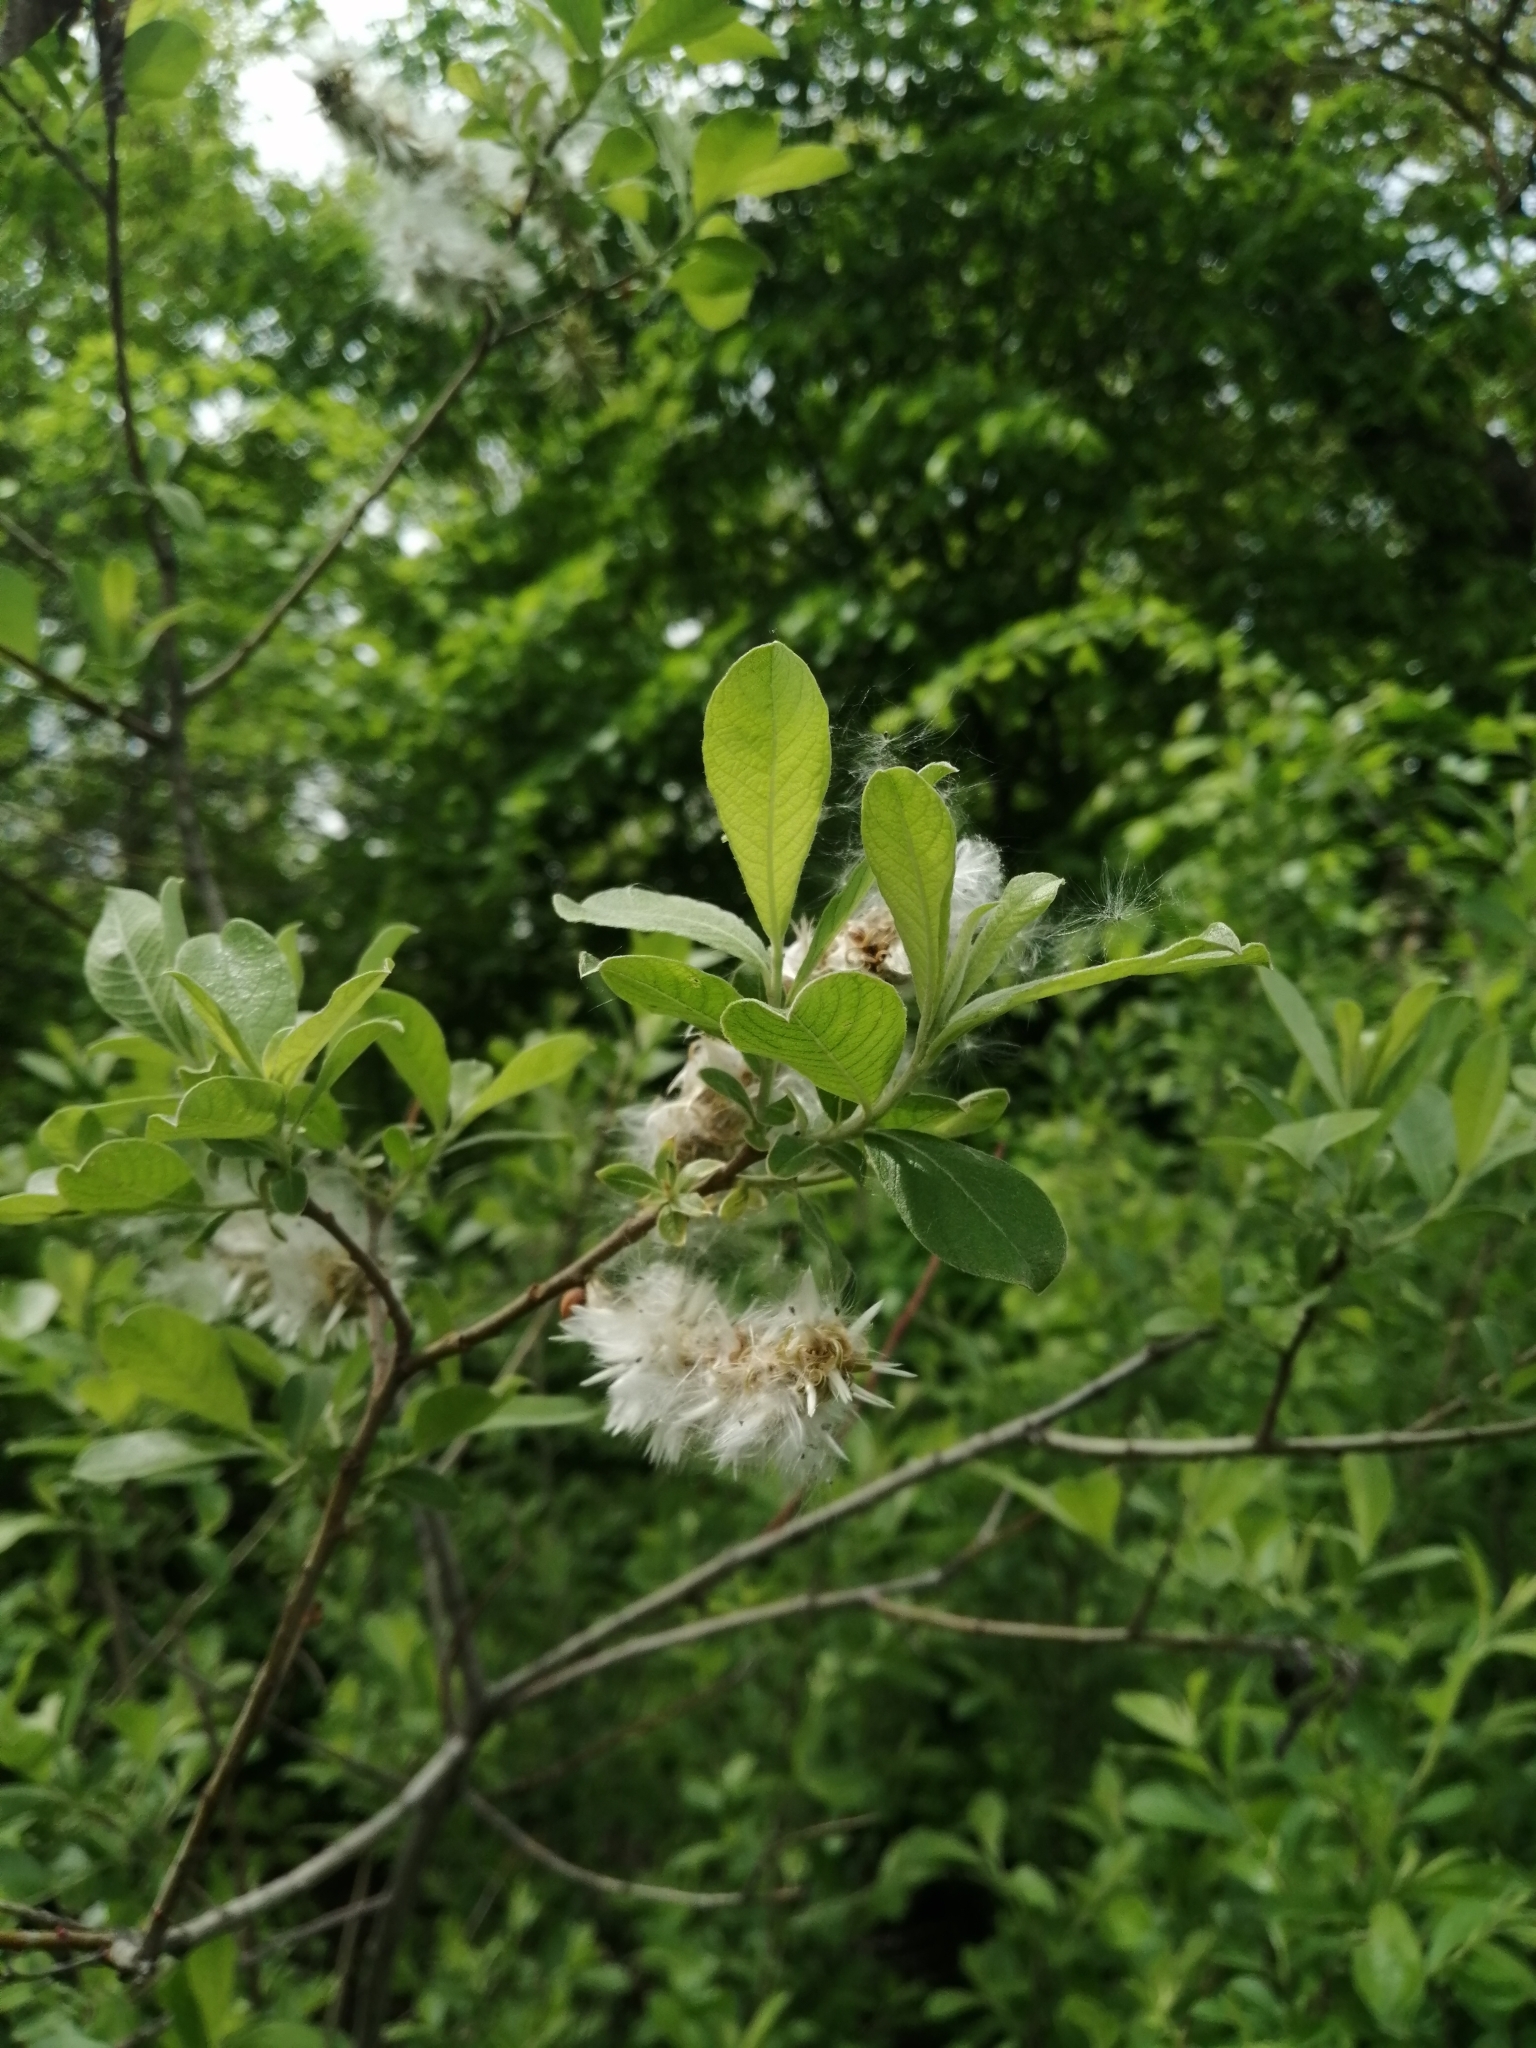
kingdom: Plantae
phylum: Tracheophyta
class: Magnoliopsida
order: Malpighiales
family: Salicaceae
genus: Salix
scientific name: Salix cinerea
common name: Common sallow
